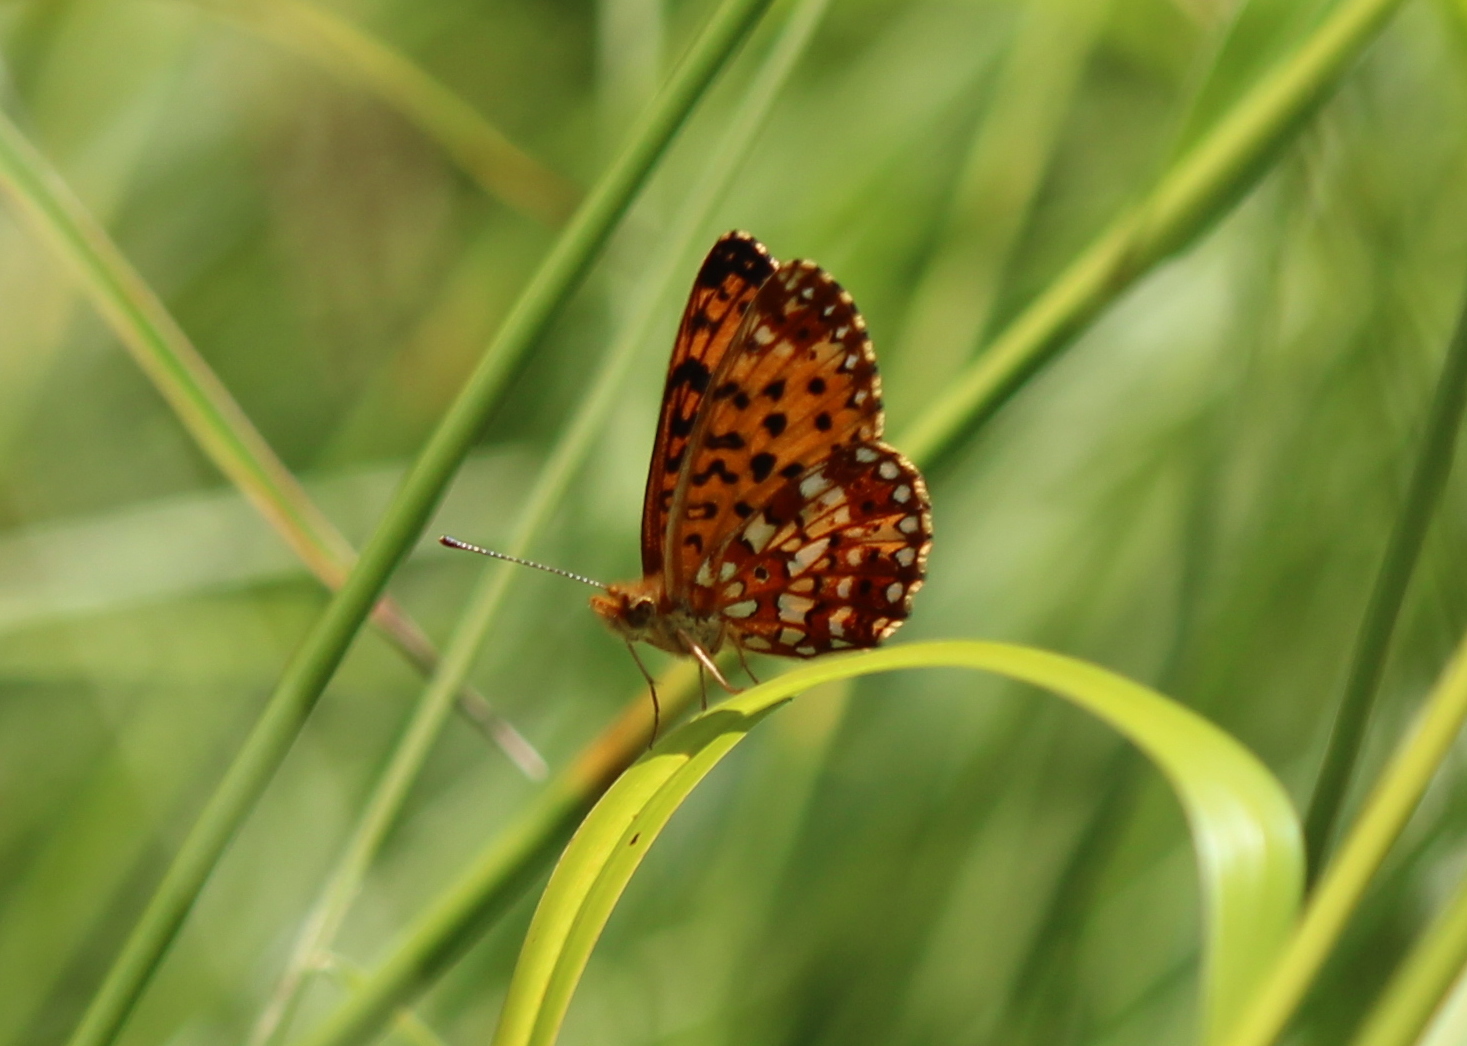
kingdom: Animalia
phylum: Arthropoda
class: Insecta
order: Lepidoptera
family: Nymphalidae
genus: Boloria
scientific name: Boloria
